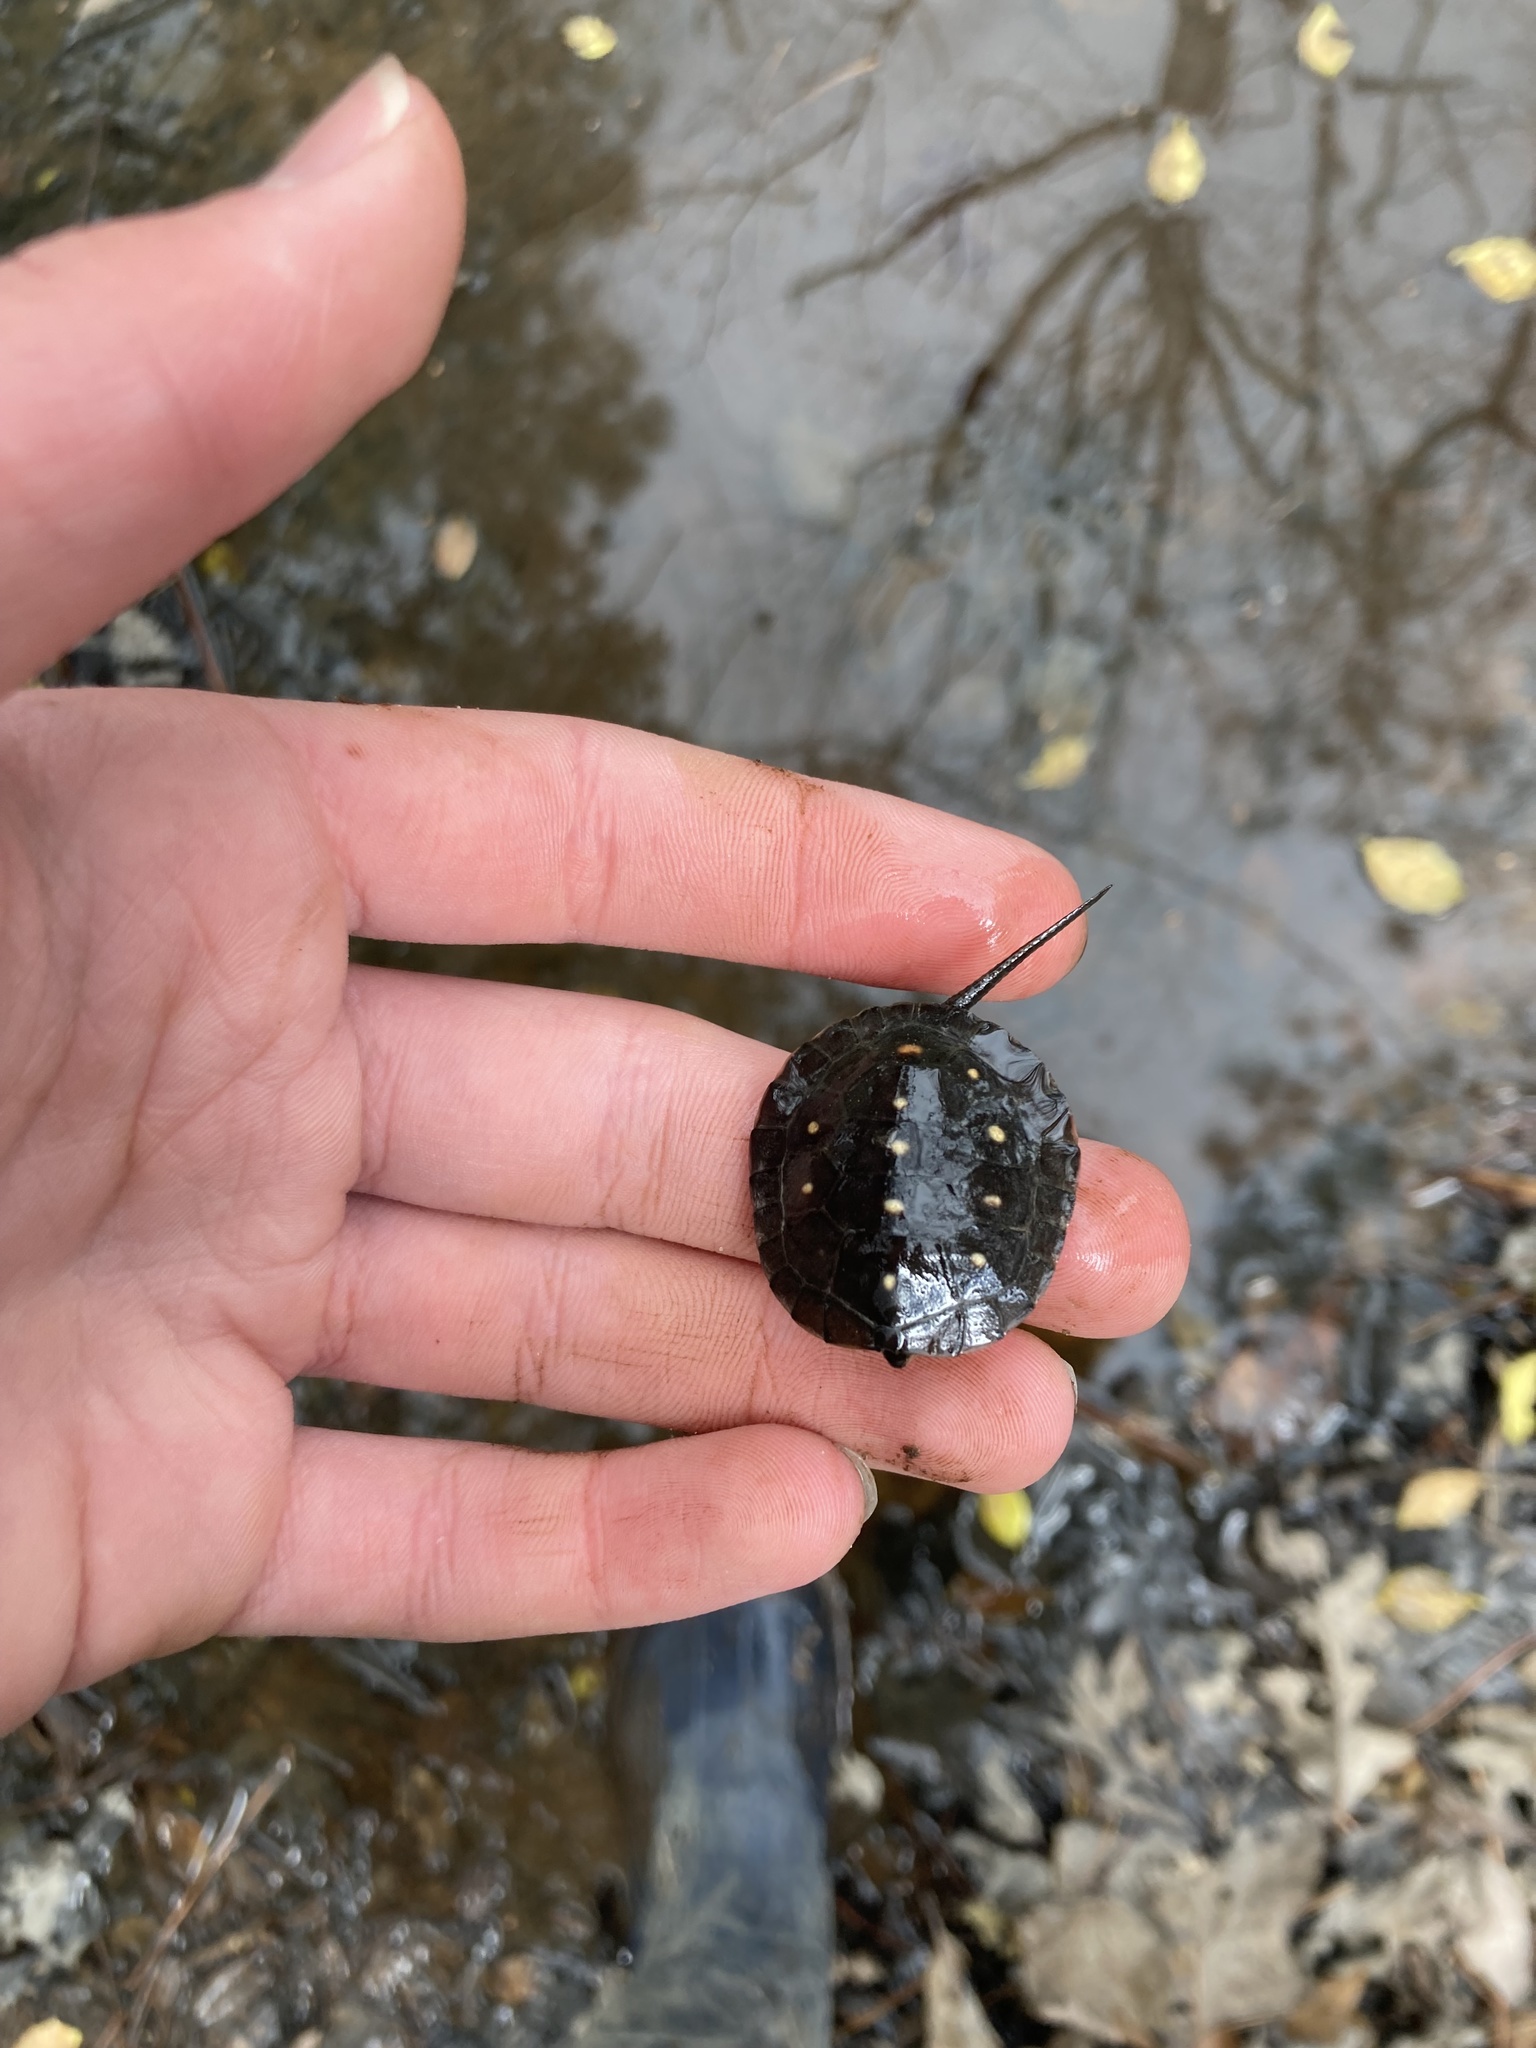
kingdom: Animalia
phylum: Chordata
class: Testudines
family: Emydidae
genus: Clemmys
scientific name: Clemmys guttata
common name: Spotted turtle
